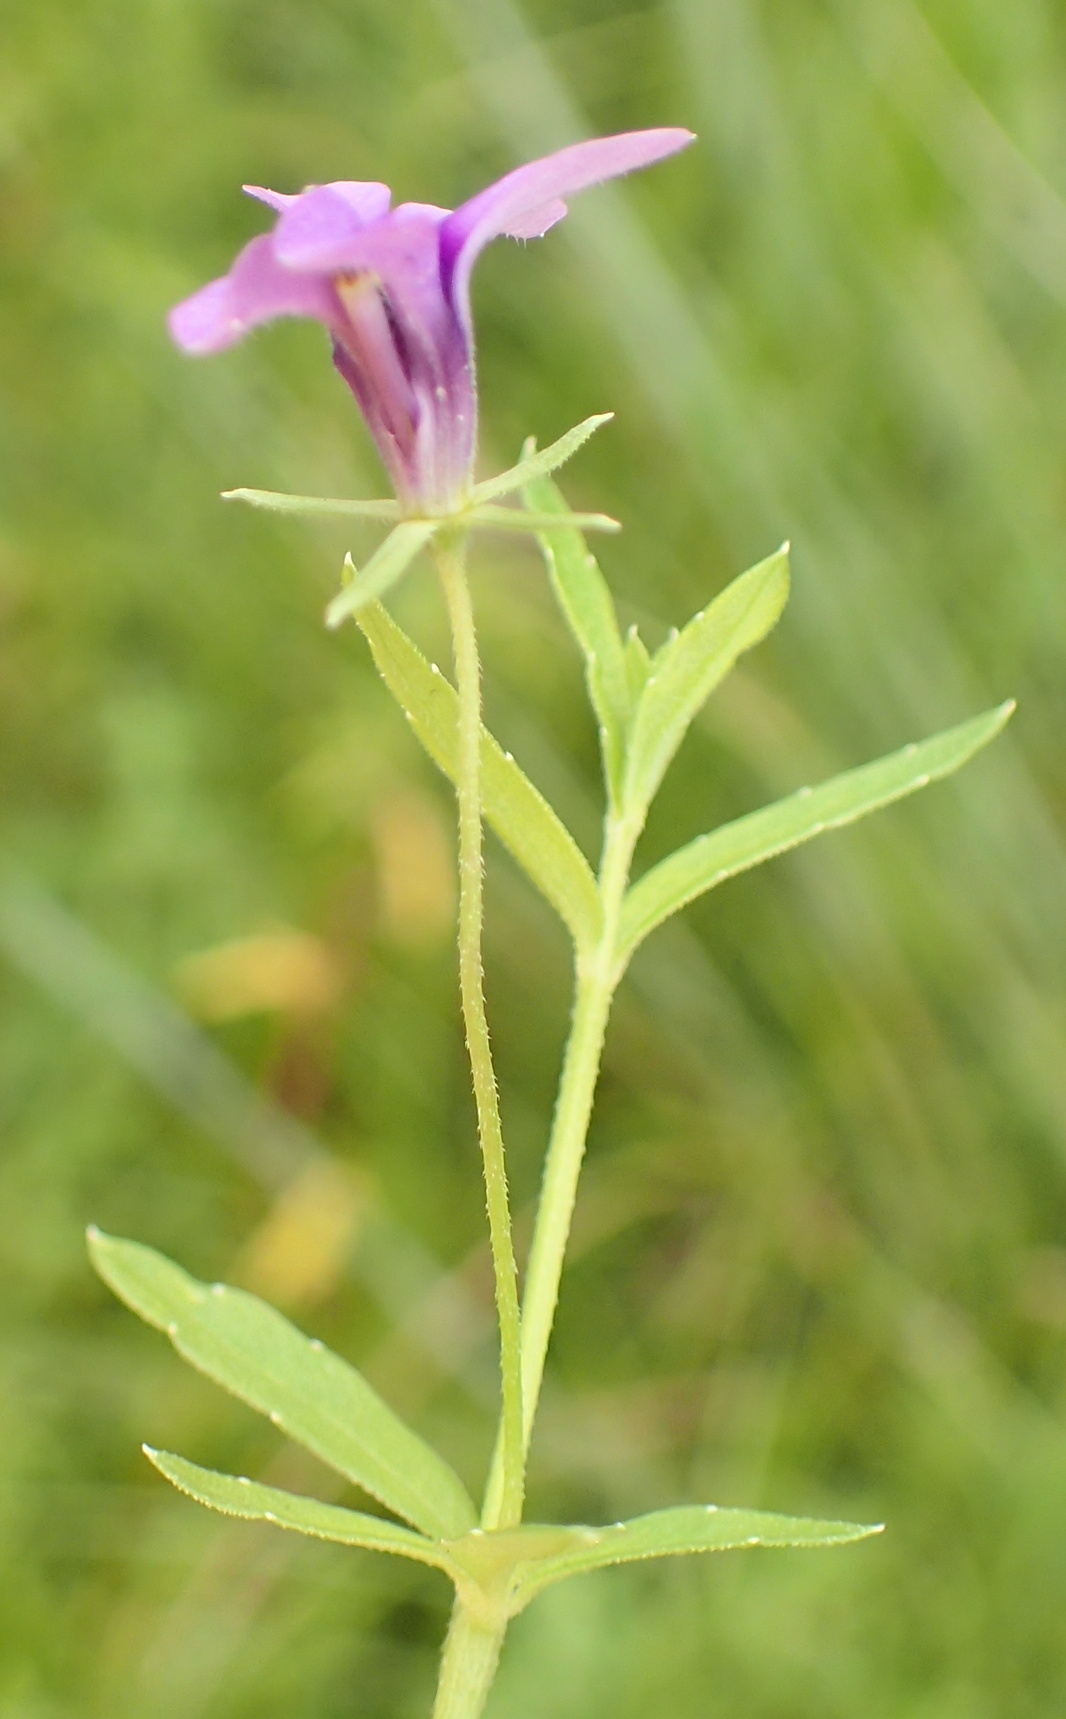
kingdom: Plantae
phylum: Tracheophyta
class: Magnoliopsida
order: Asterales
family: Campanulaceae
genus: Monopsis
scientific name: Monopsis stellarioides
